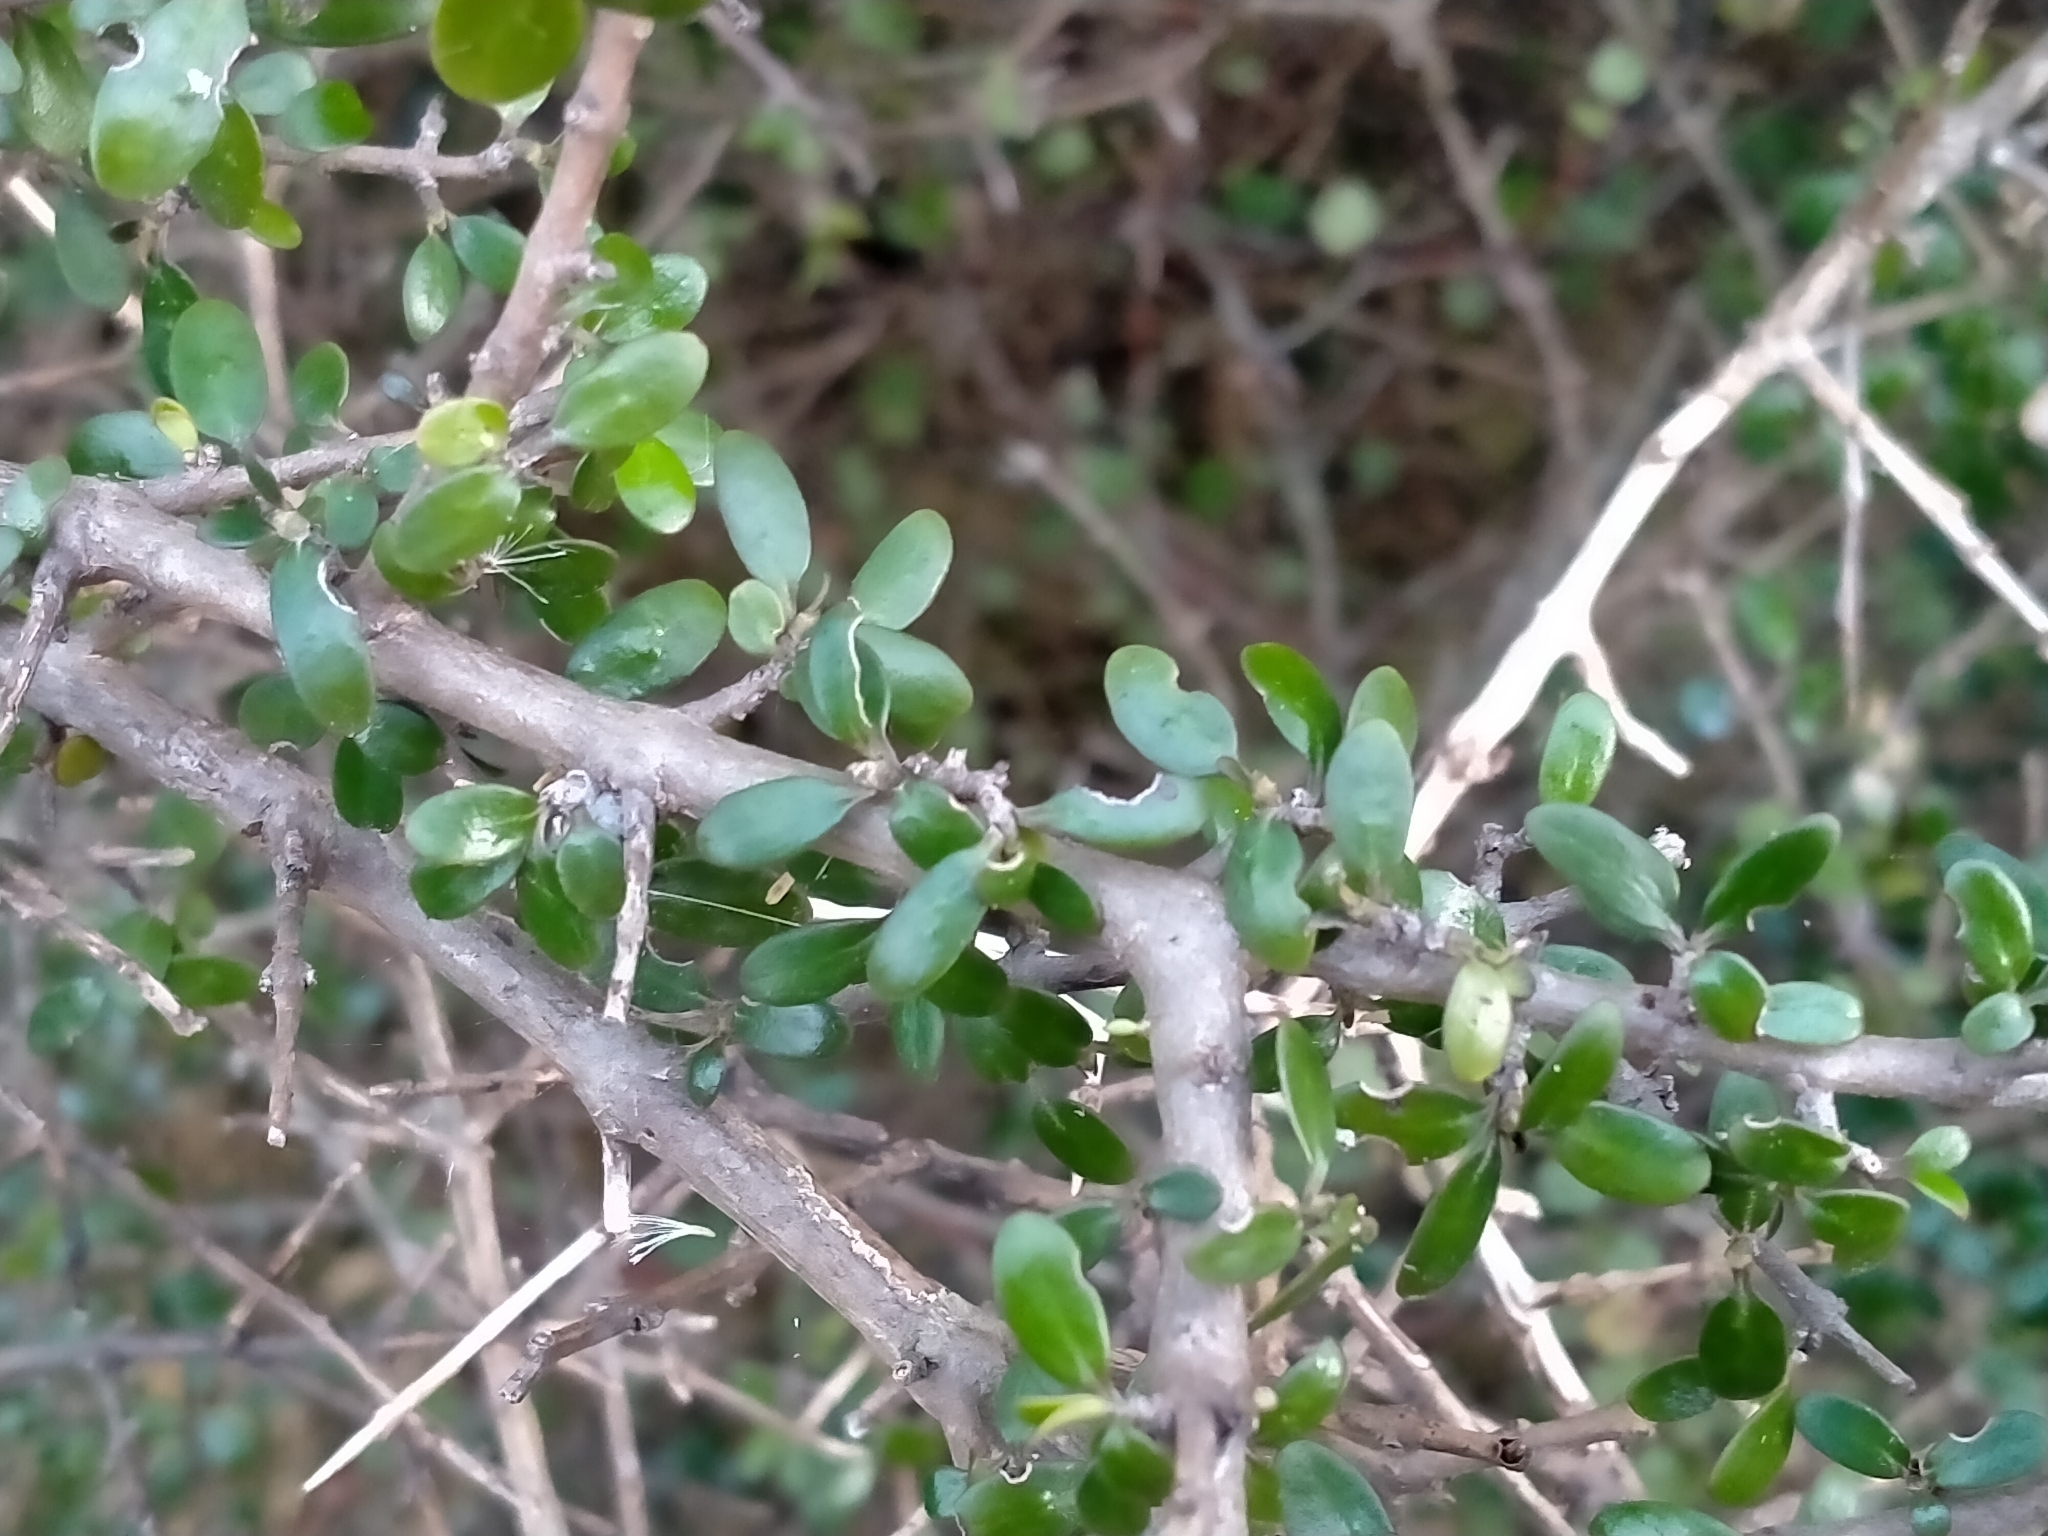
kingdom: Plantae
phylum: Tracheophyta
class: Magnoliopsida
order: Gentianales
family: Rubiaceae
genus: Coprosma
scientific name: Coprosma propinqua
